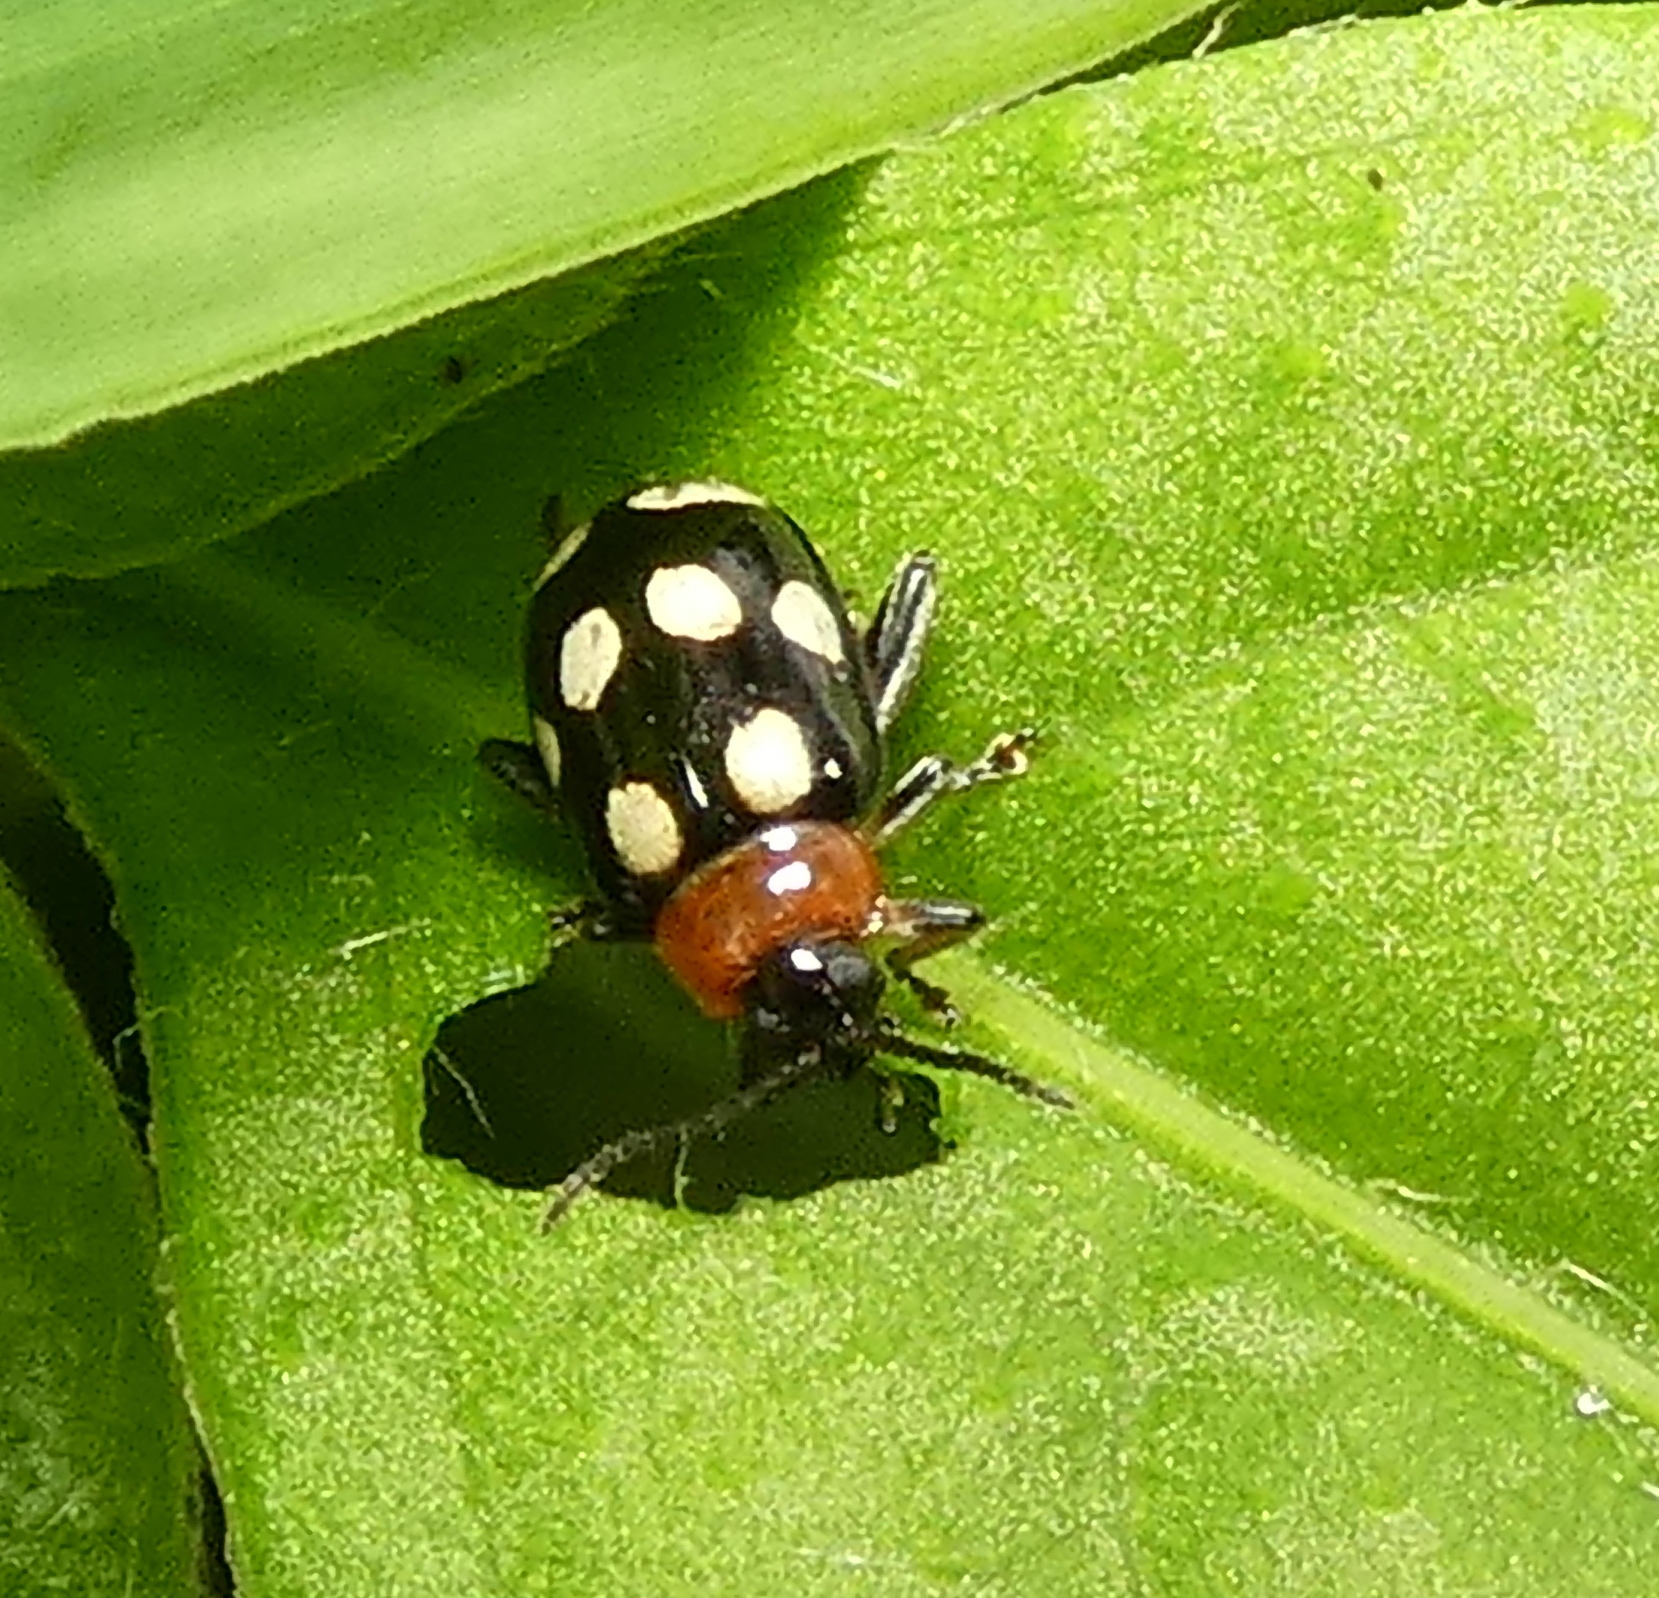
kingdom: Animalia
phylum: Arthropoda
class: Insecta
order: Coleoptera
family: Chrysomelidae
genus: Phenrica
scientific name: Phenrica austriaca
